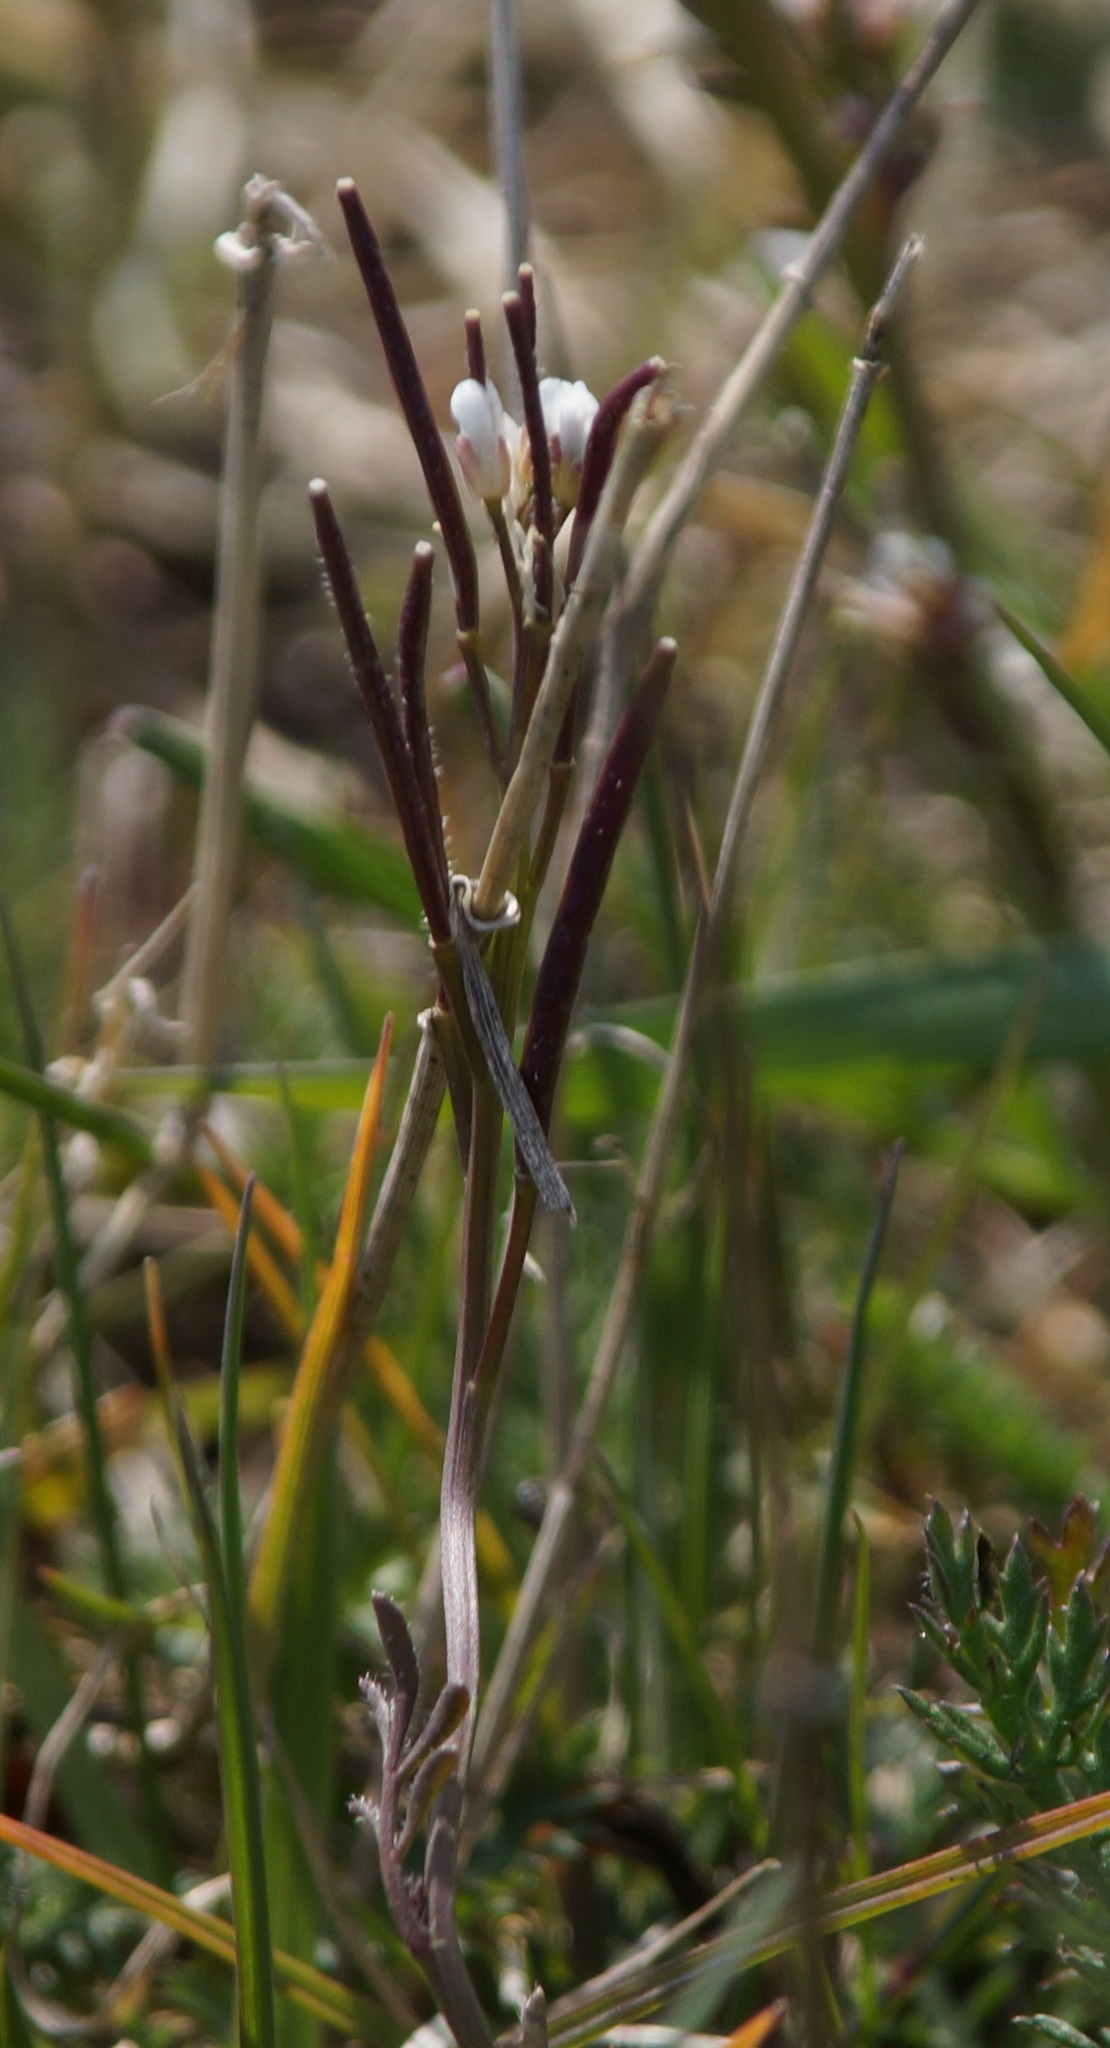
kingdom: Plantae
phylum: Tracheophyta
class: Magnoliopsida
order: Brassicales
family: Brassicaceae
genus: Cardamine
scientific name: Cardamine hirsuta
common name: Hairy bittercress
